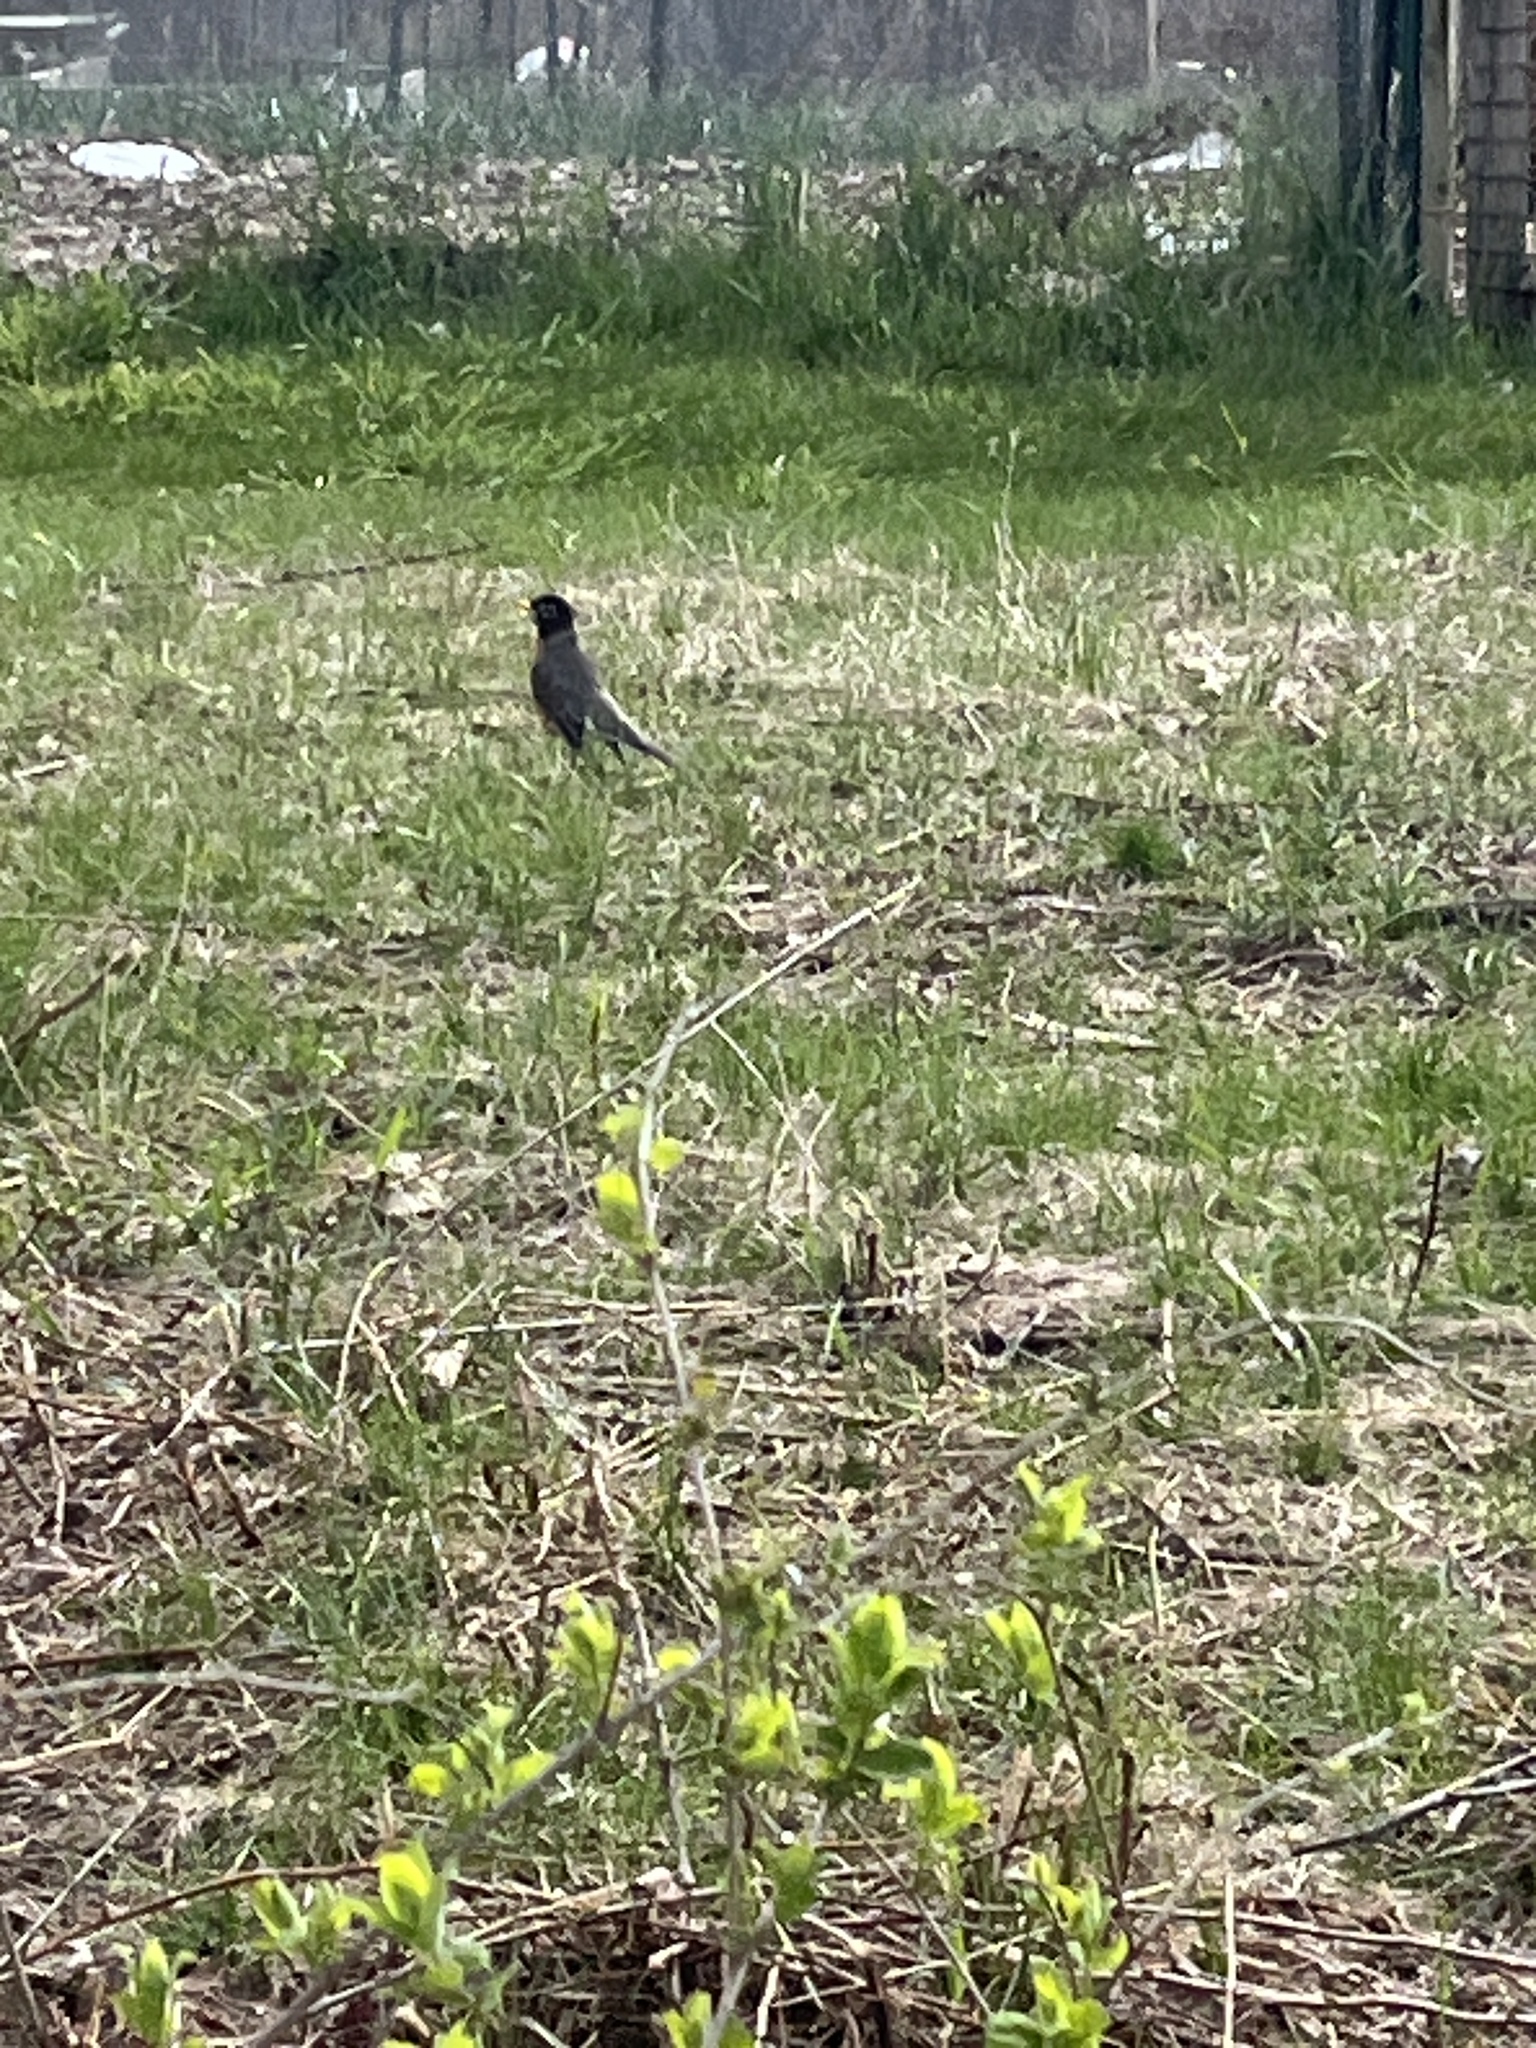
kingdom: Animalia
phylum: Chordata
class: Aves
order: Passeriformes
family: Turdidae
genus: Turdus
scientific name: Turdus migratorius
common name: American robin
